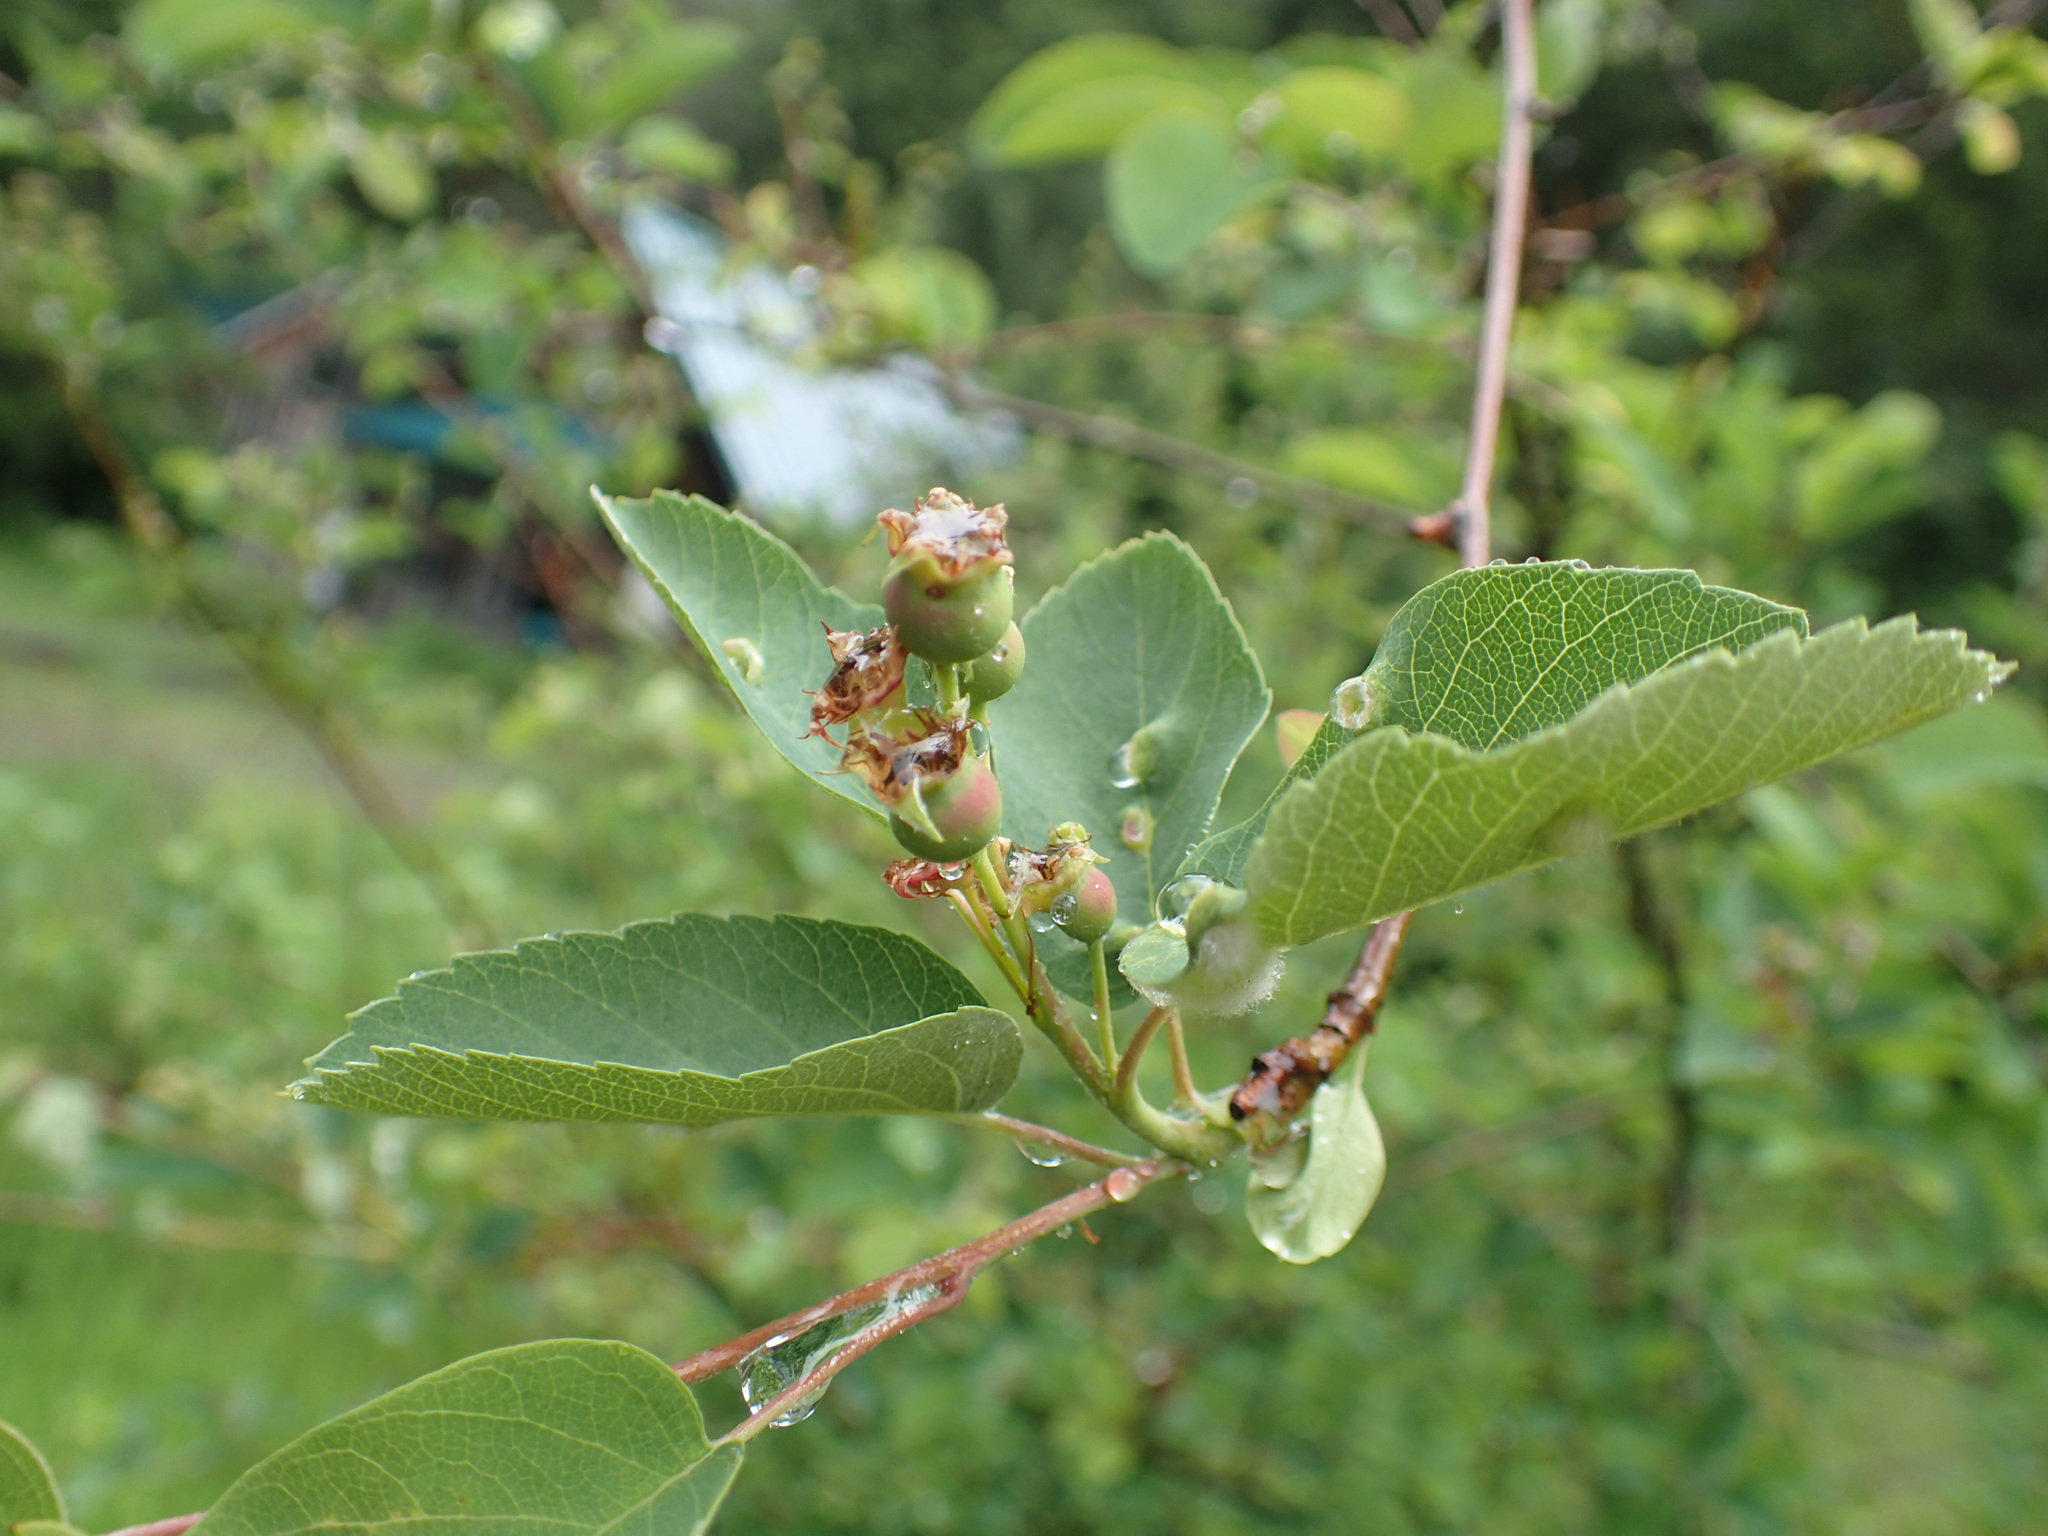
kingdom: Plantae
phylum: Tracheophyta
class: Magnoliopsida
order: Rosales
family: Rosaceae
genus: Amelanchier
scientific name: Amelanchier alnifolia
